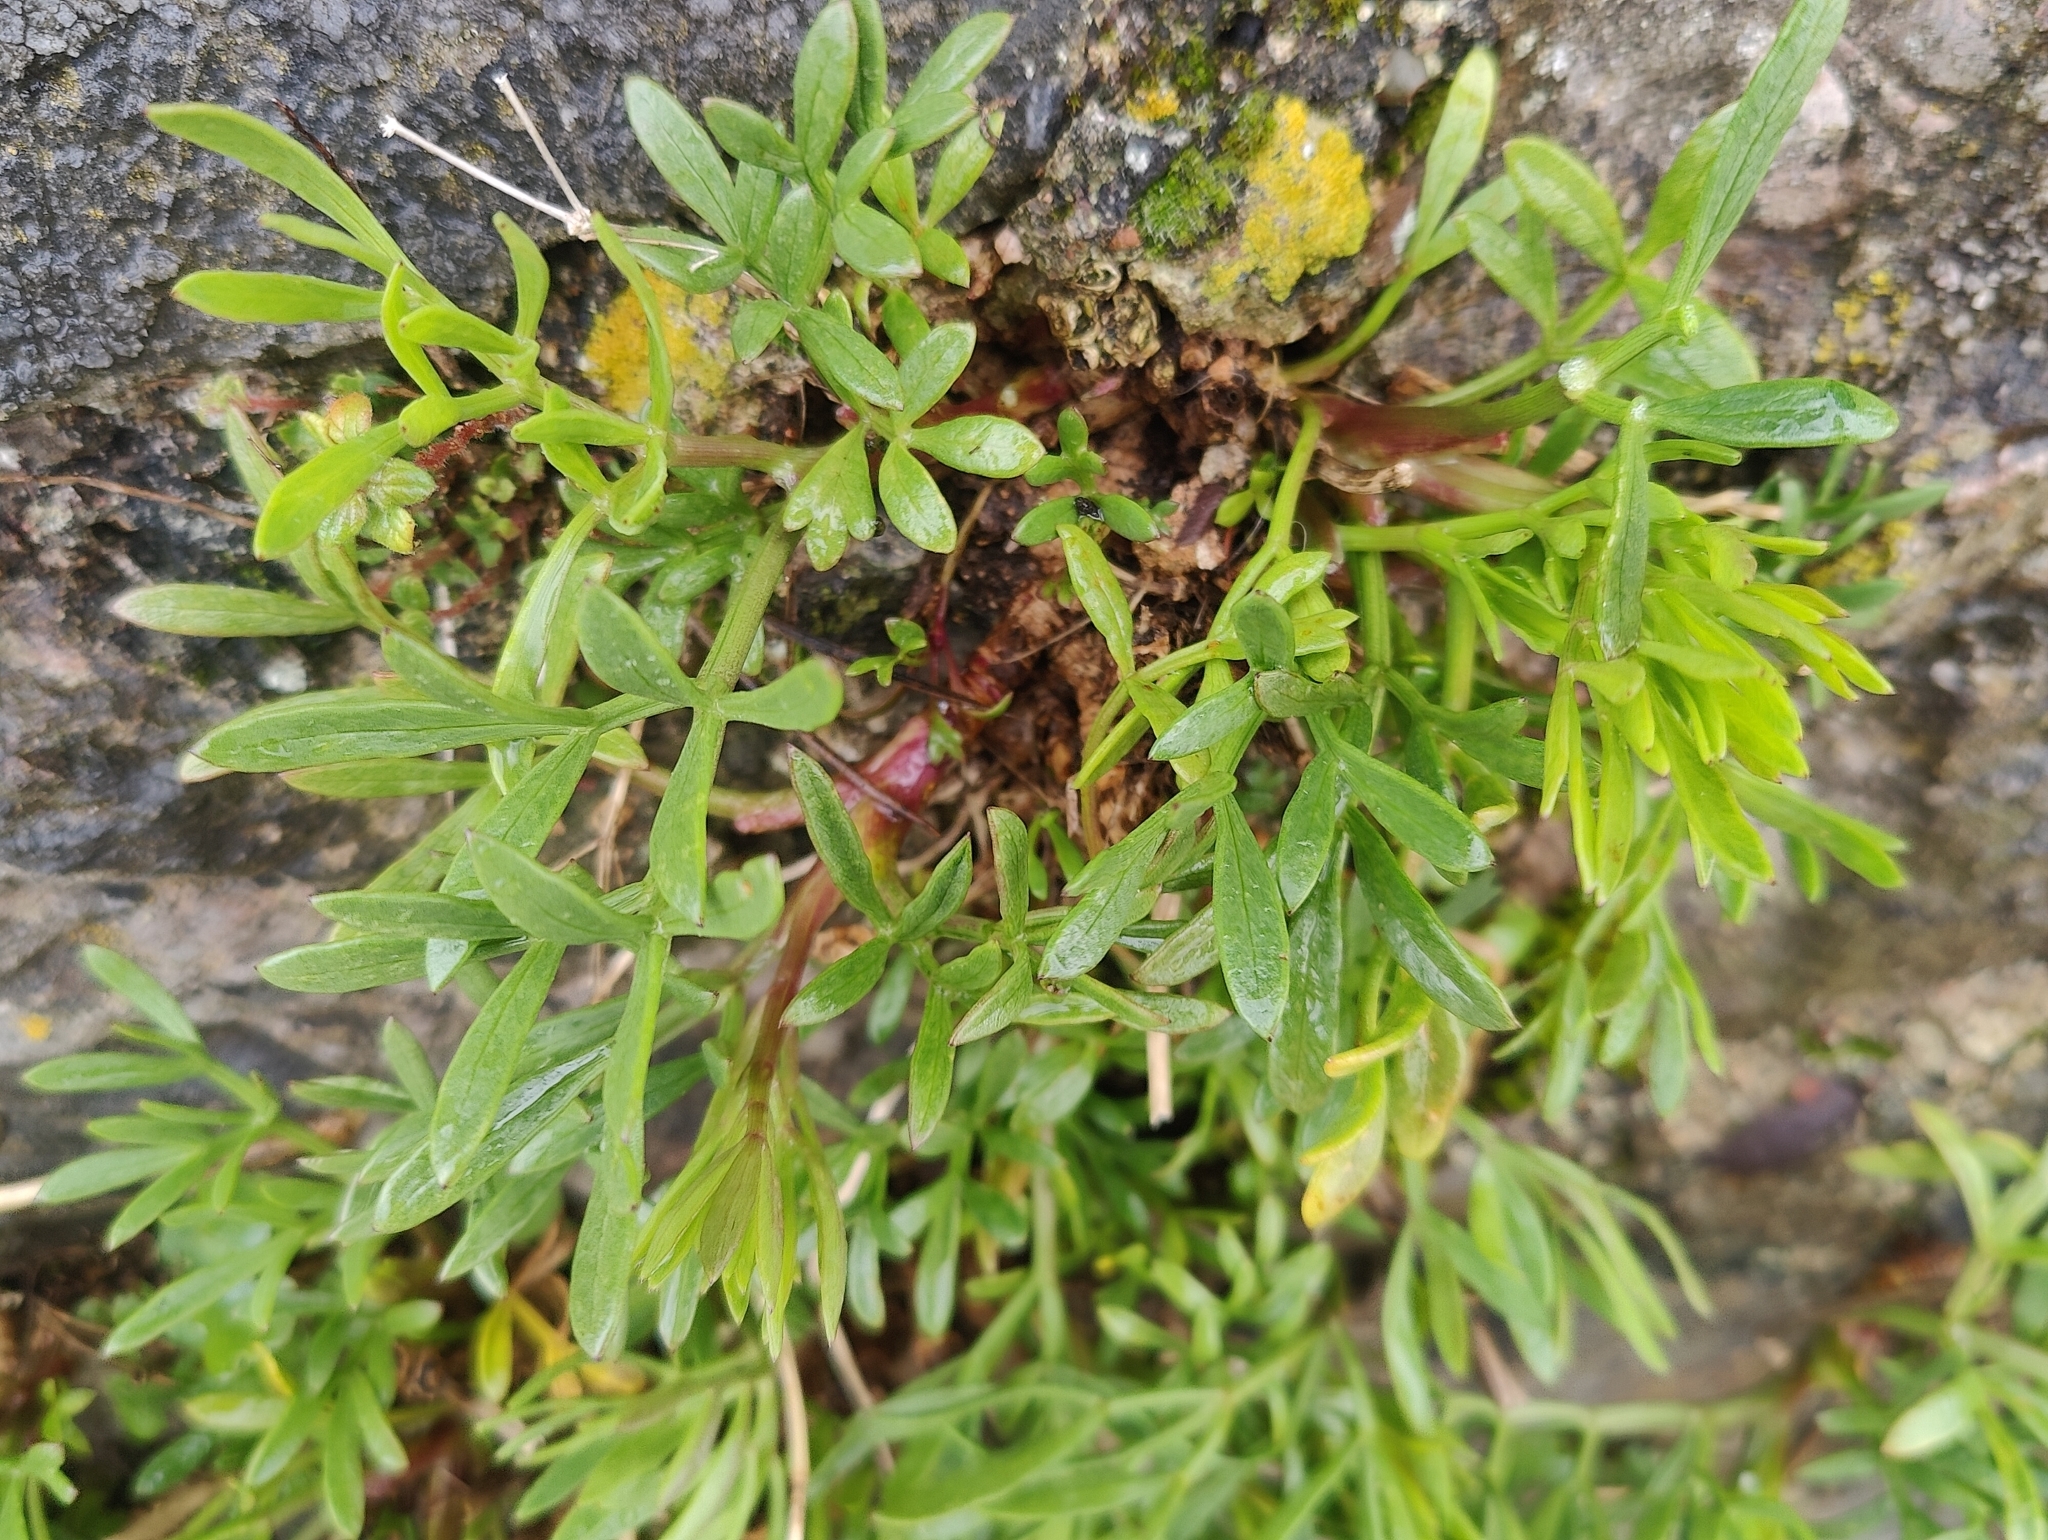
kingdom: Plantae
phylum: Tracheophyta
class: Magnoliopsida
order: Apiales
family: Apiaceae
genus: Crithmum
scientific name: Crithmum maritimum
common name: Rock samphire
